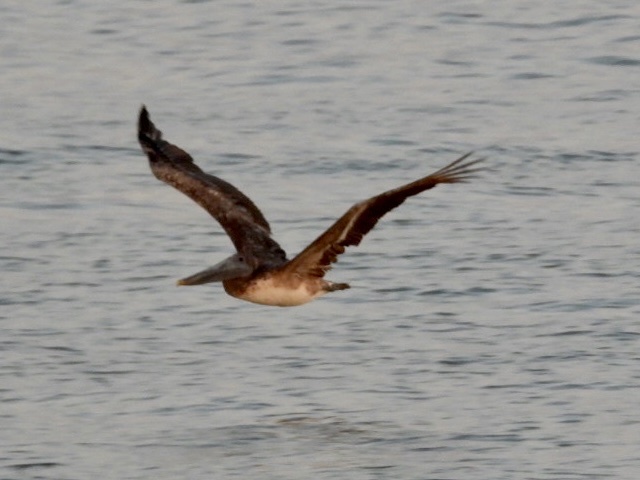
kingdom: Animalia
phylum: Chordata
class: Aves
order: Pelecaniformes
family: Pelecanidae
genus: Pelecanus
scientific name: Pelecanus occidentalis
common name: Brown pelican
